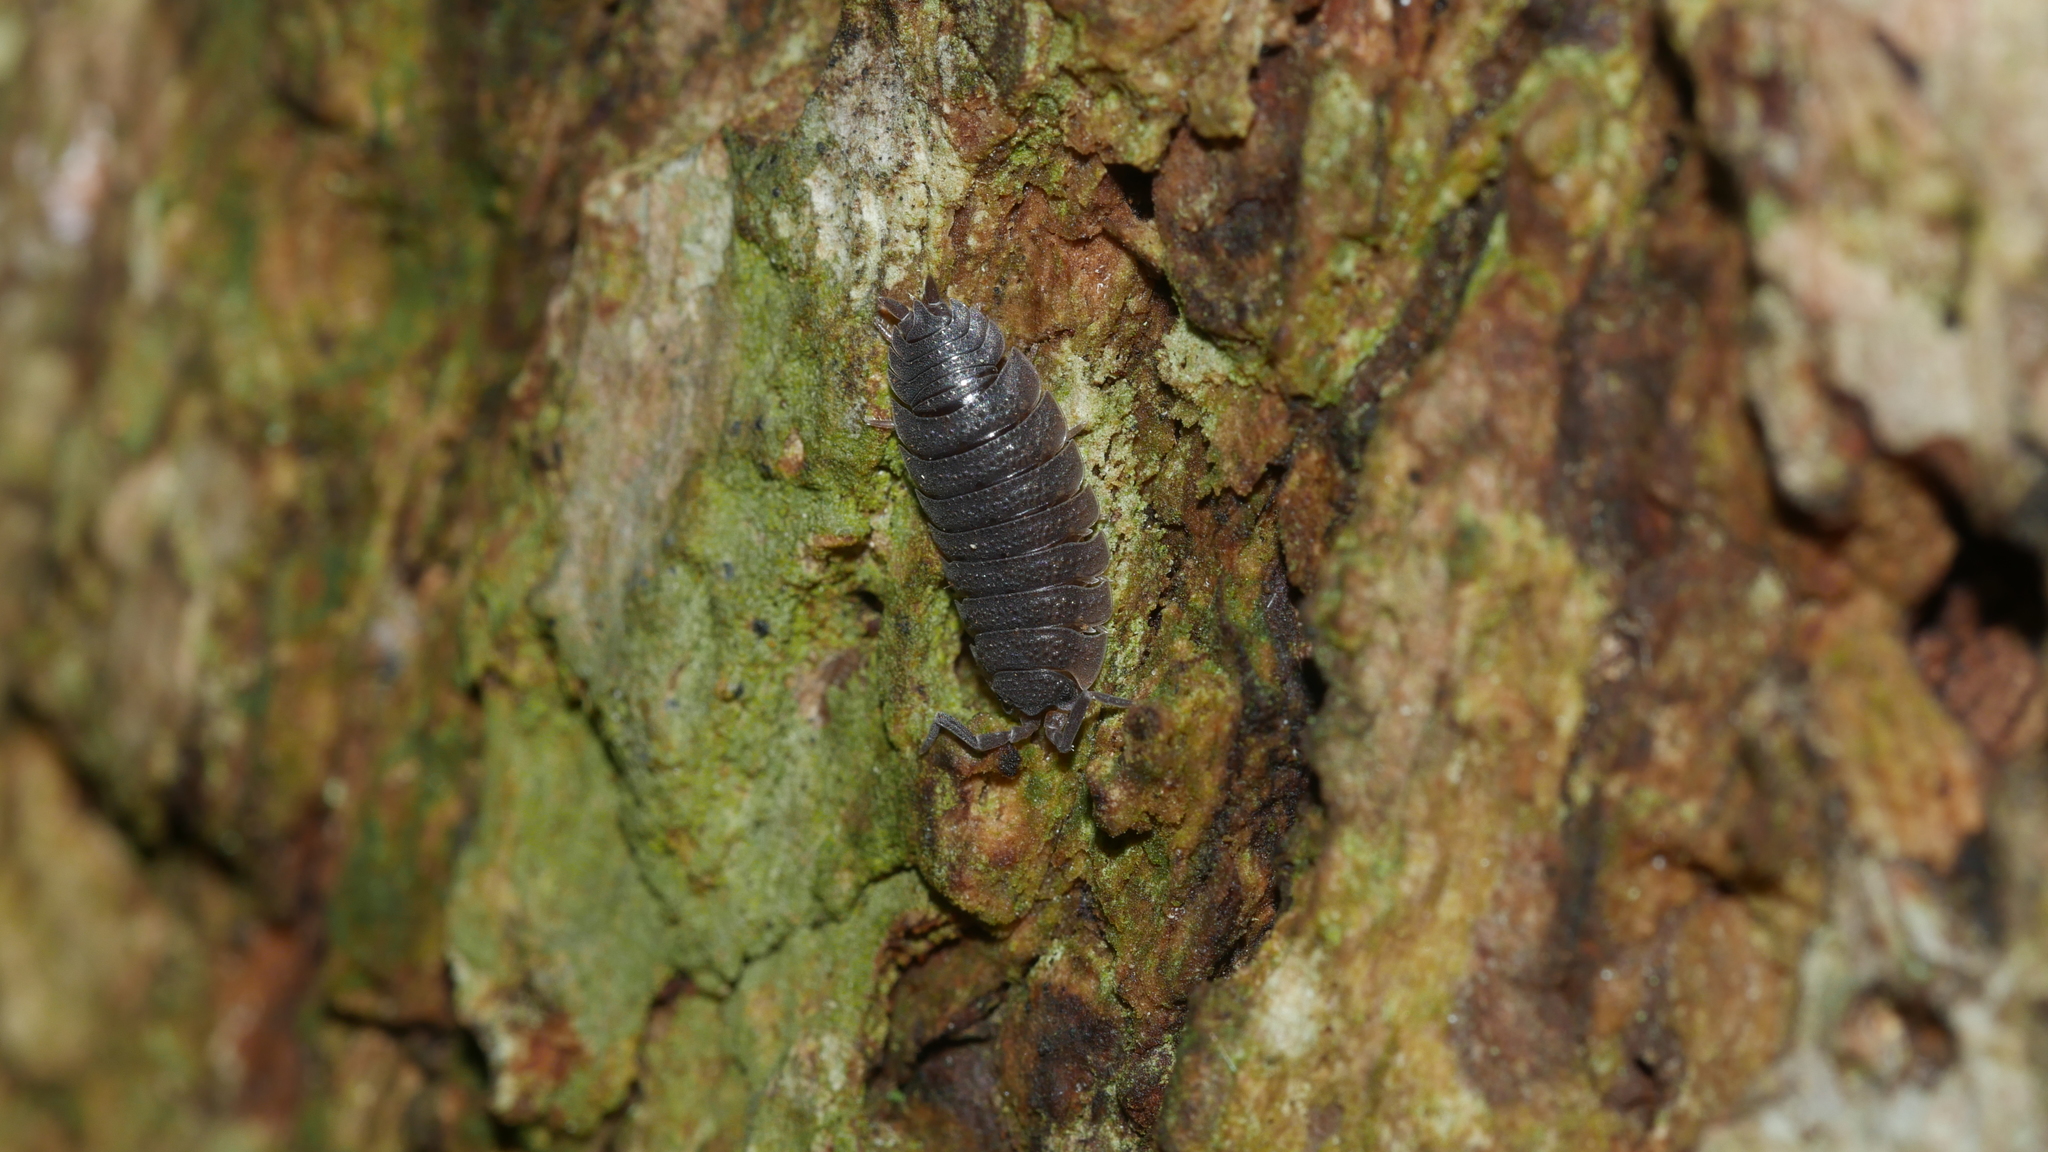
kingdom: Animalia
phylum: Arthropoda
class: Malacostraca
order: Isopoda
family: Porcellionidae
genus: Porcellio
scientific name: Porcellio scaber
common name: Common rough woodlouse
